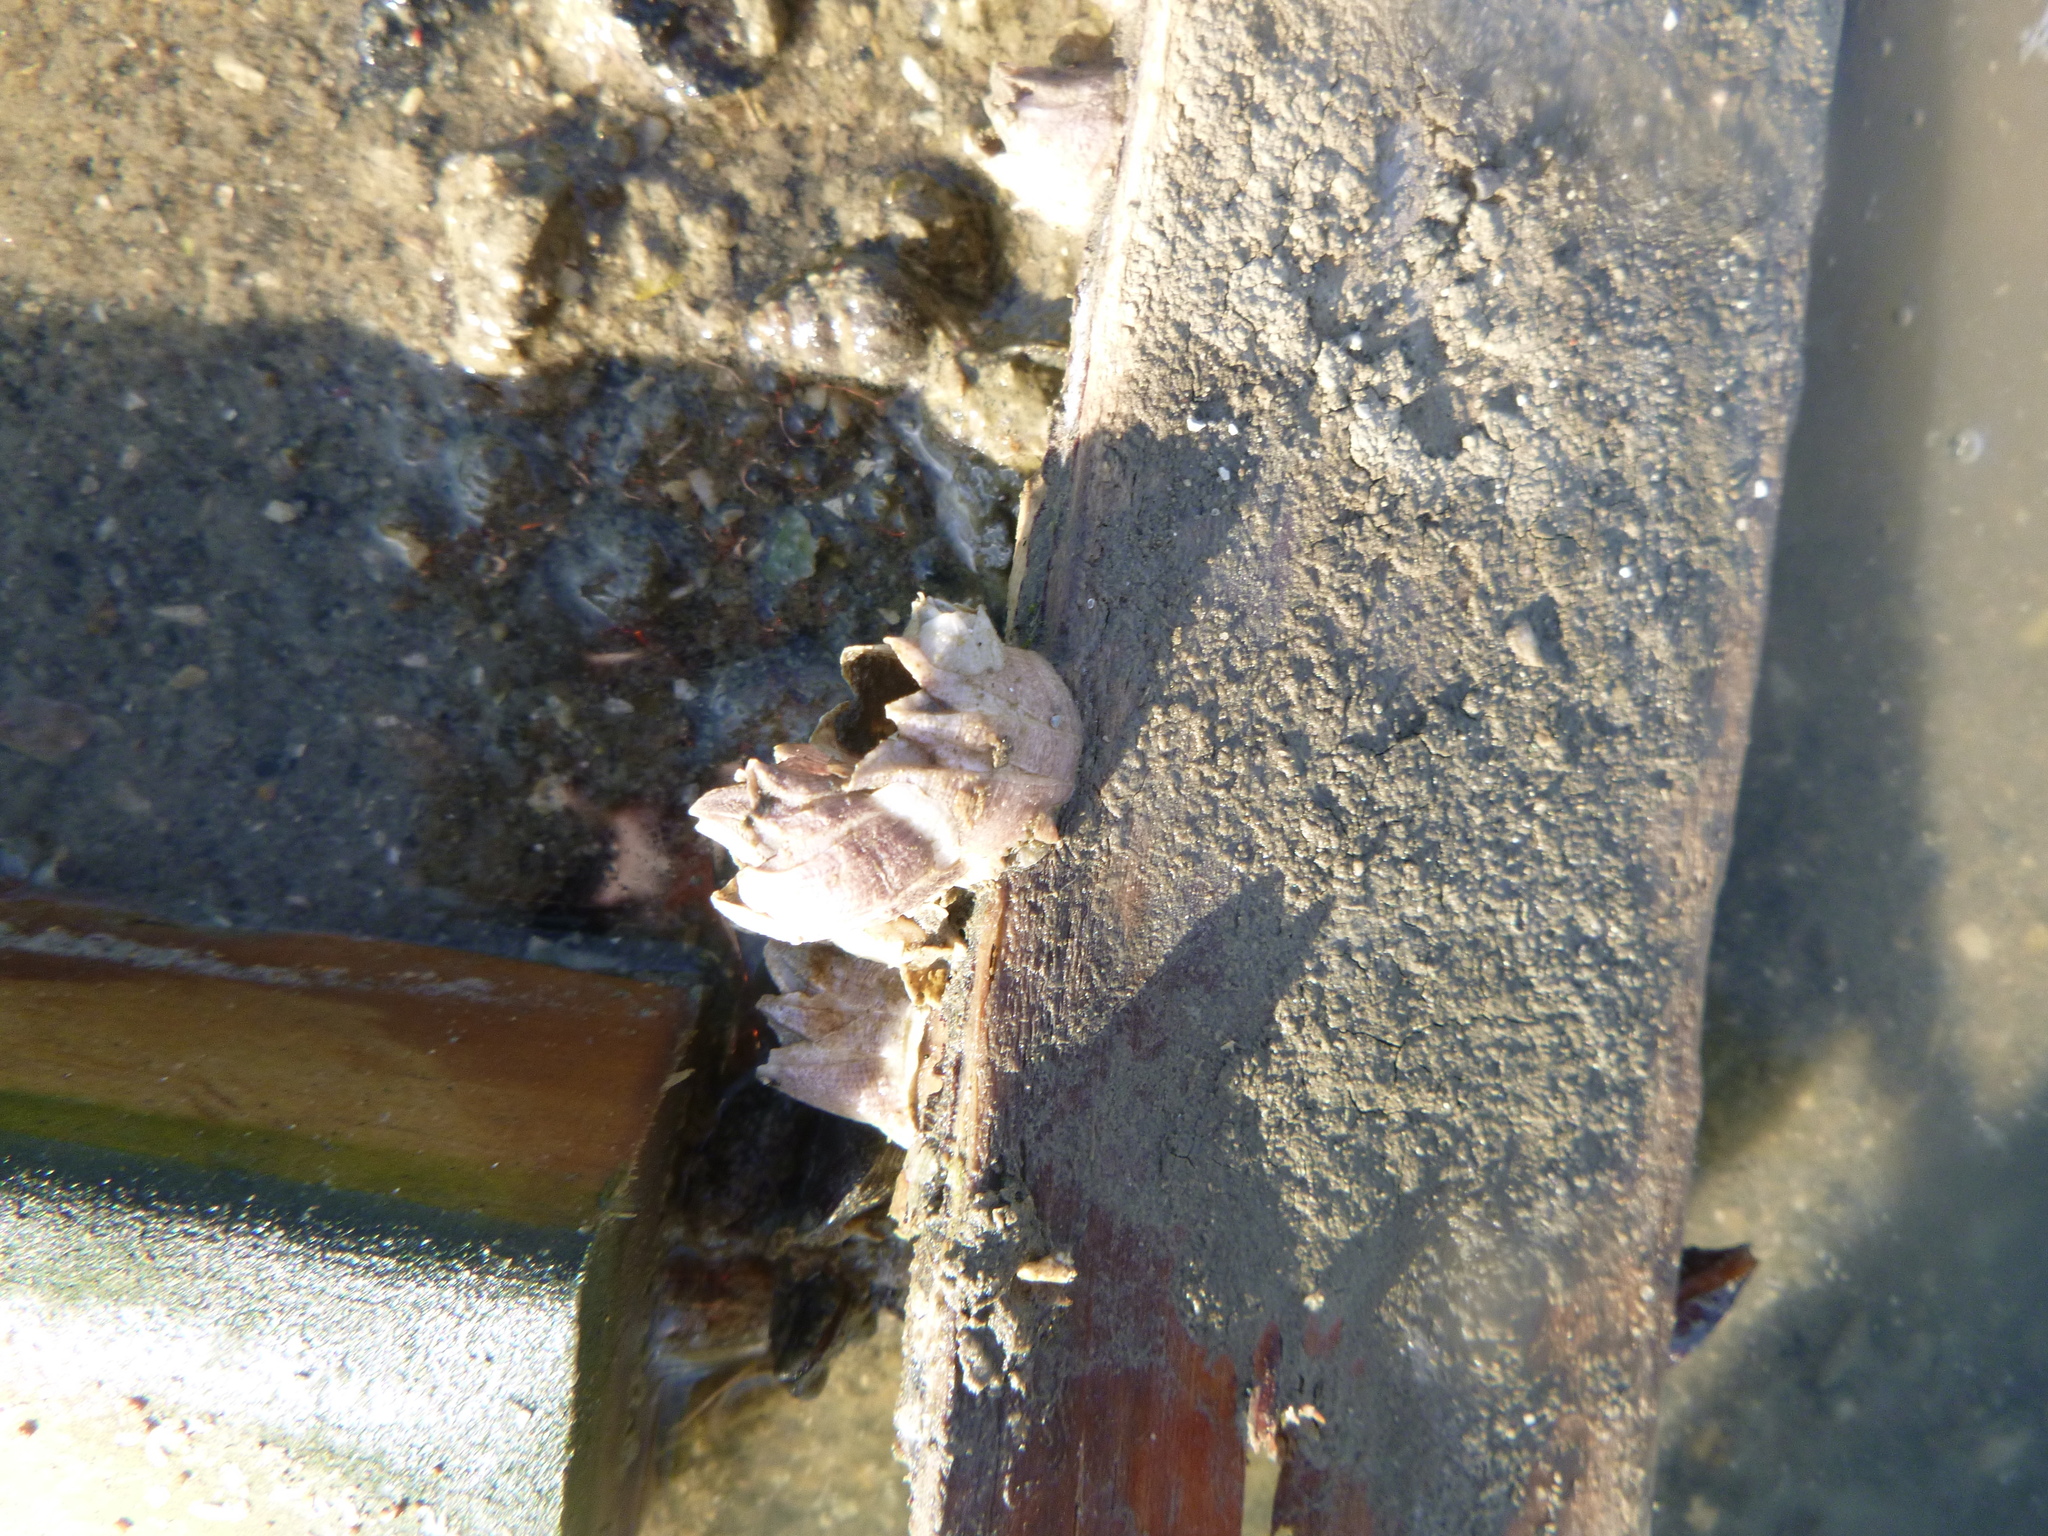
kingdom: Animalia
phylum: Arthropoda
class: Maxillopoda
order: Sessilia
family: Balanidae
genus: Fistulobalanus
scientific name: Fistulobalanus kondakovi
